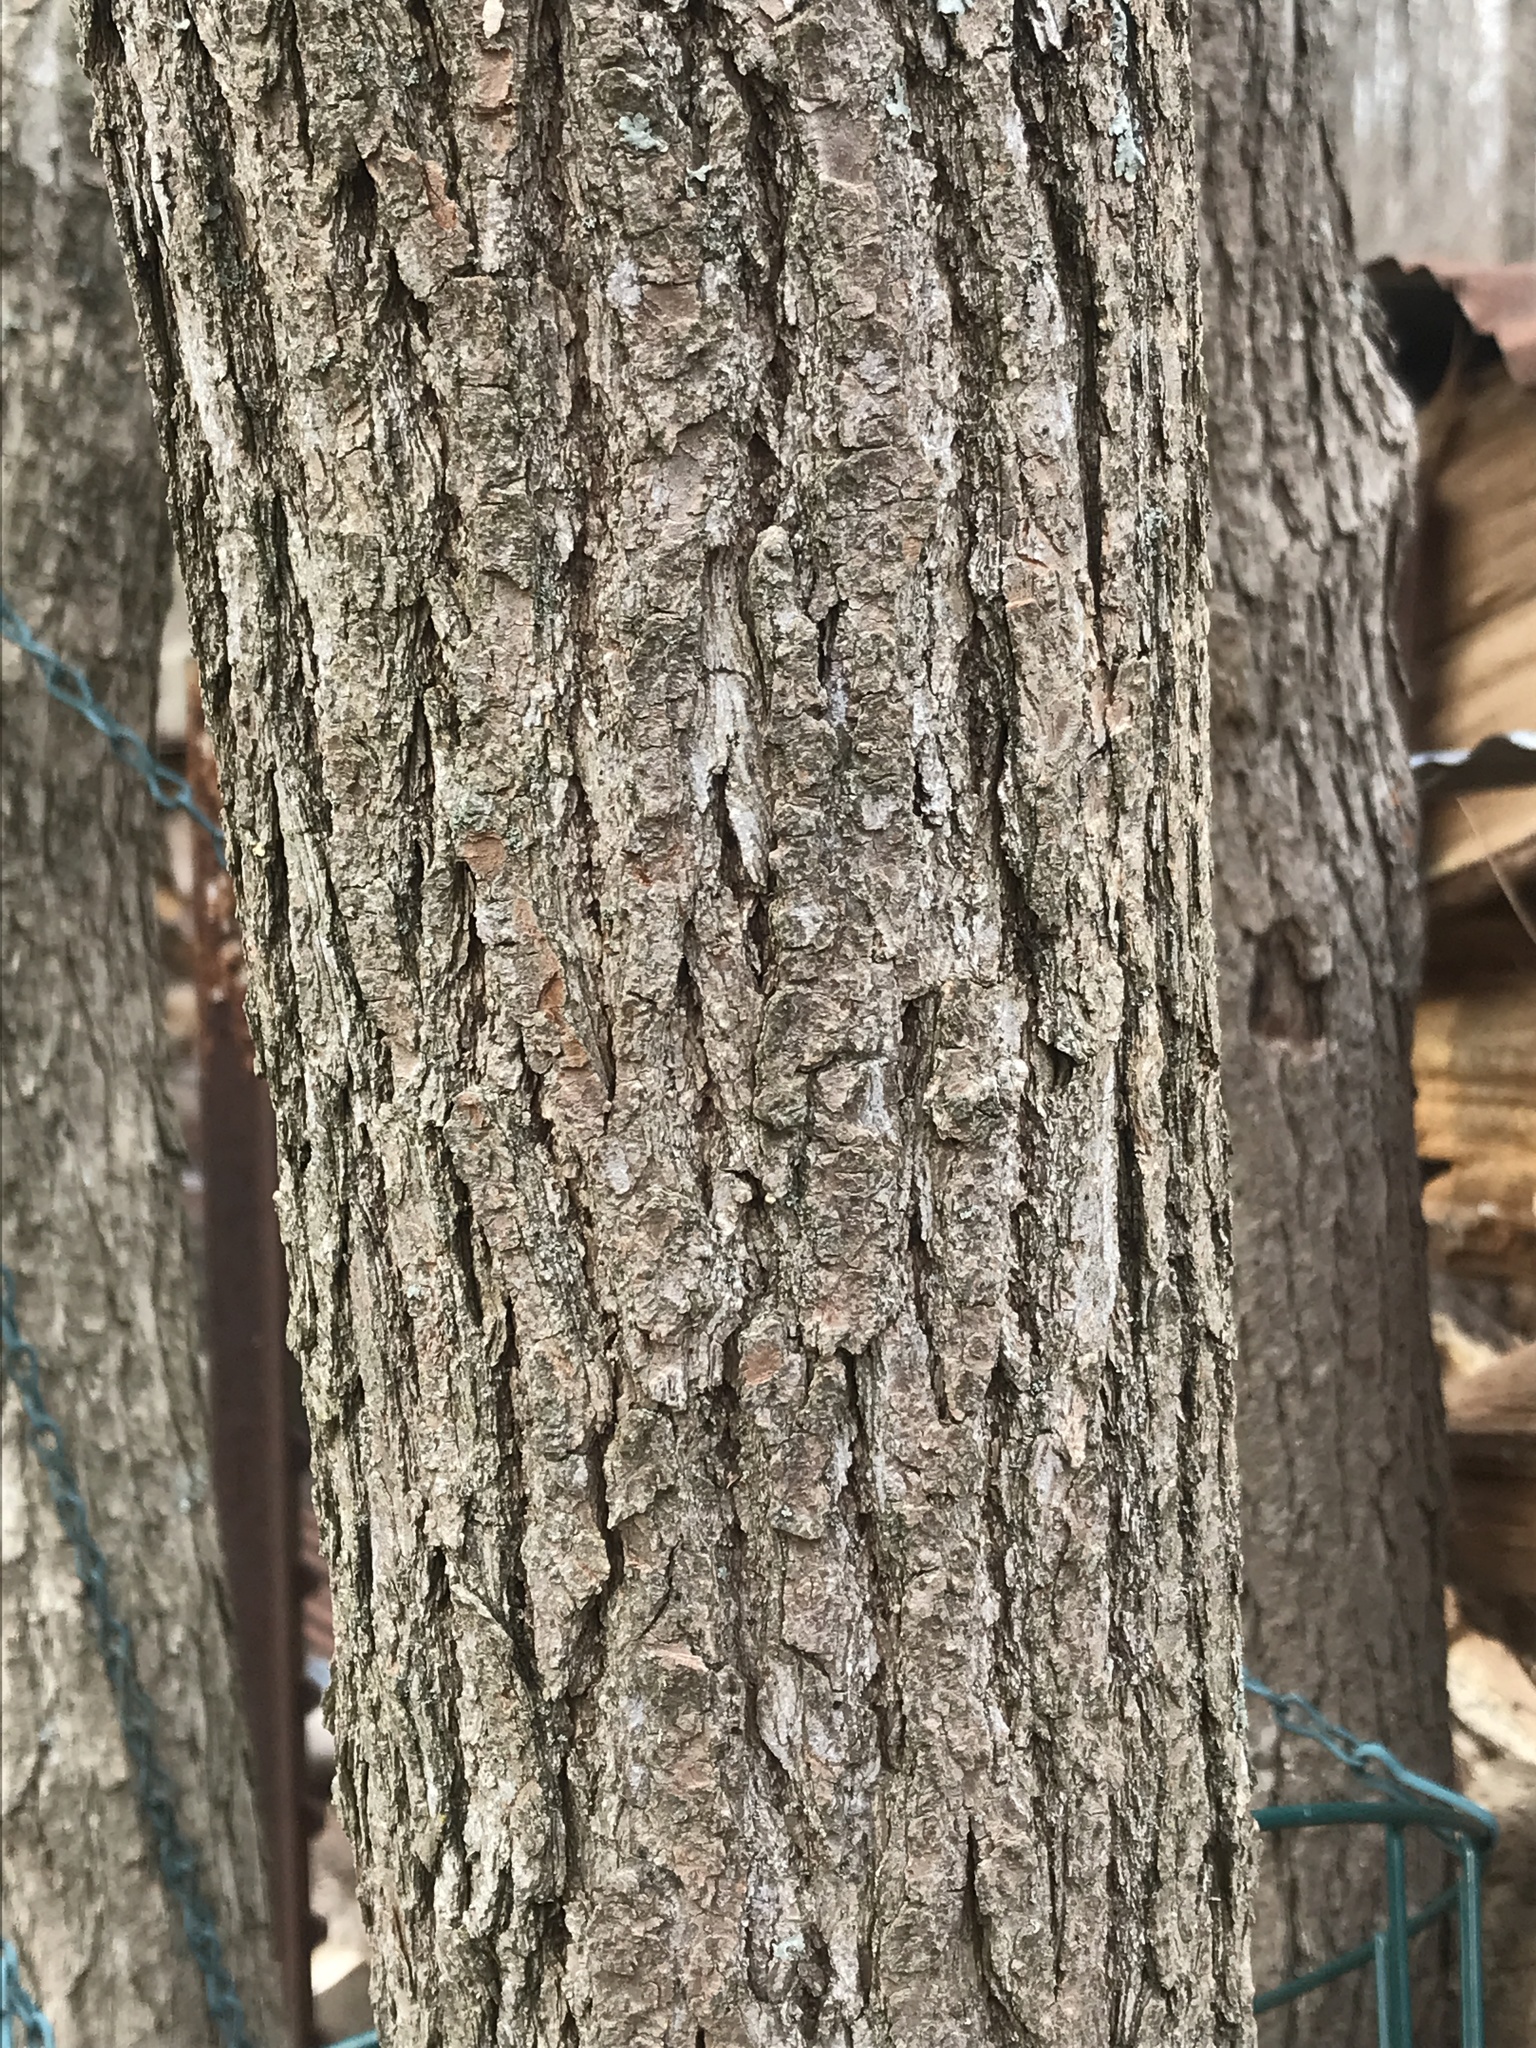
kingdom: Plantae
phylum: Tracheophyta
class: Magnoliopsida
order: Laurales
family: Lauraceae
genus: Sassafras
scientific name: Sassafras albidum
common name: Sassafras
